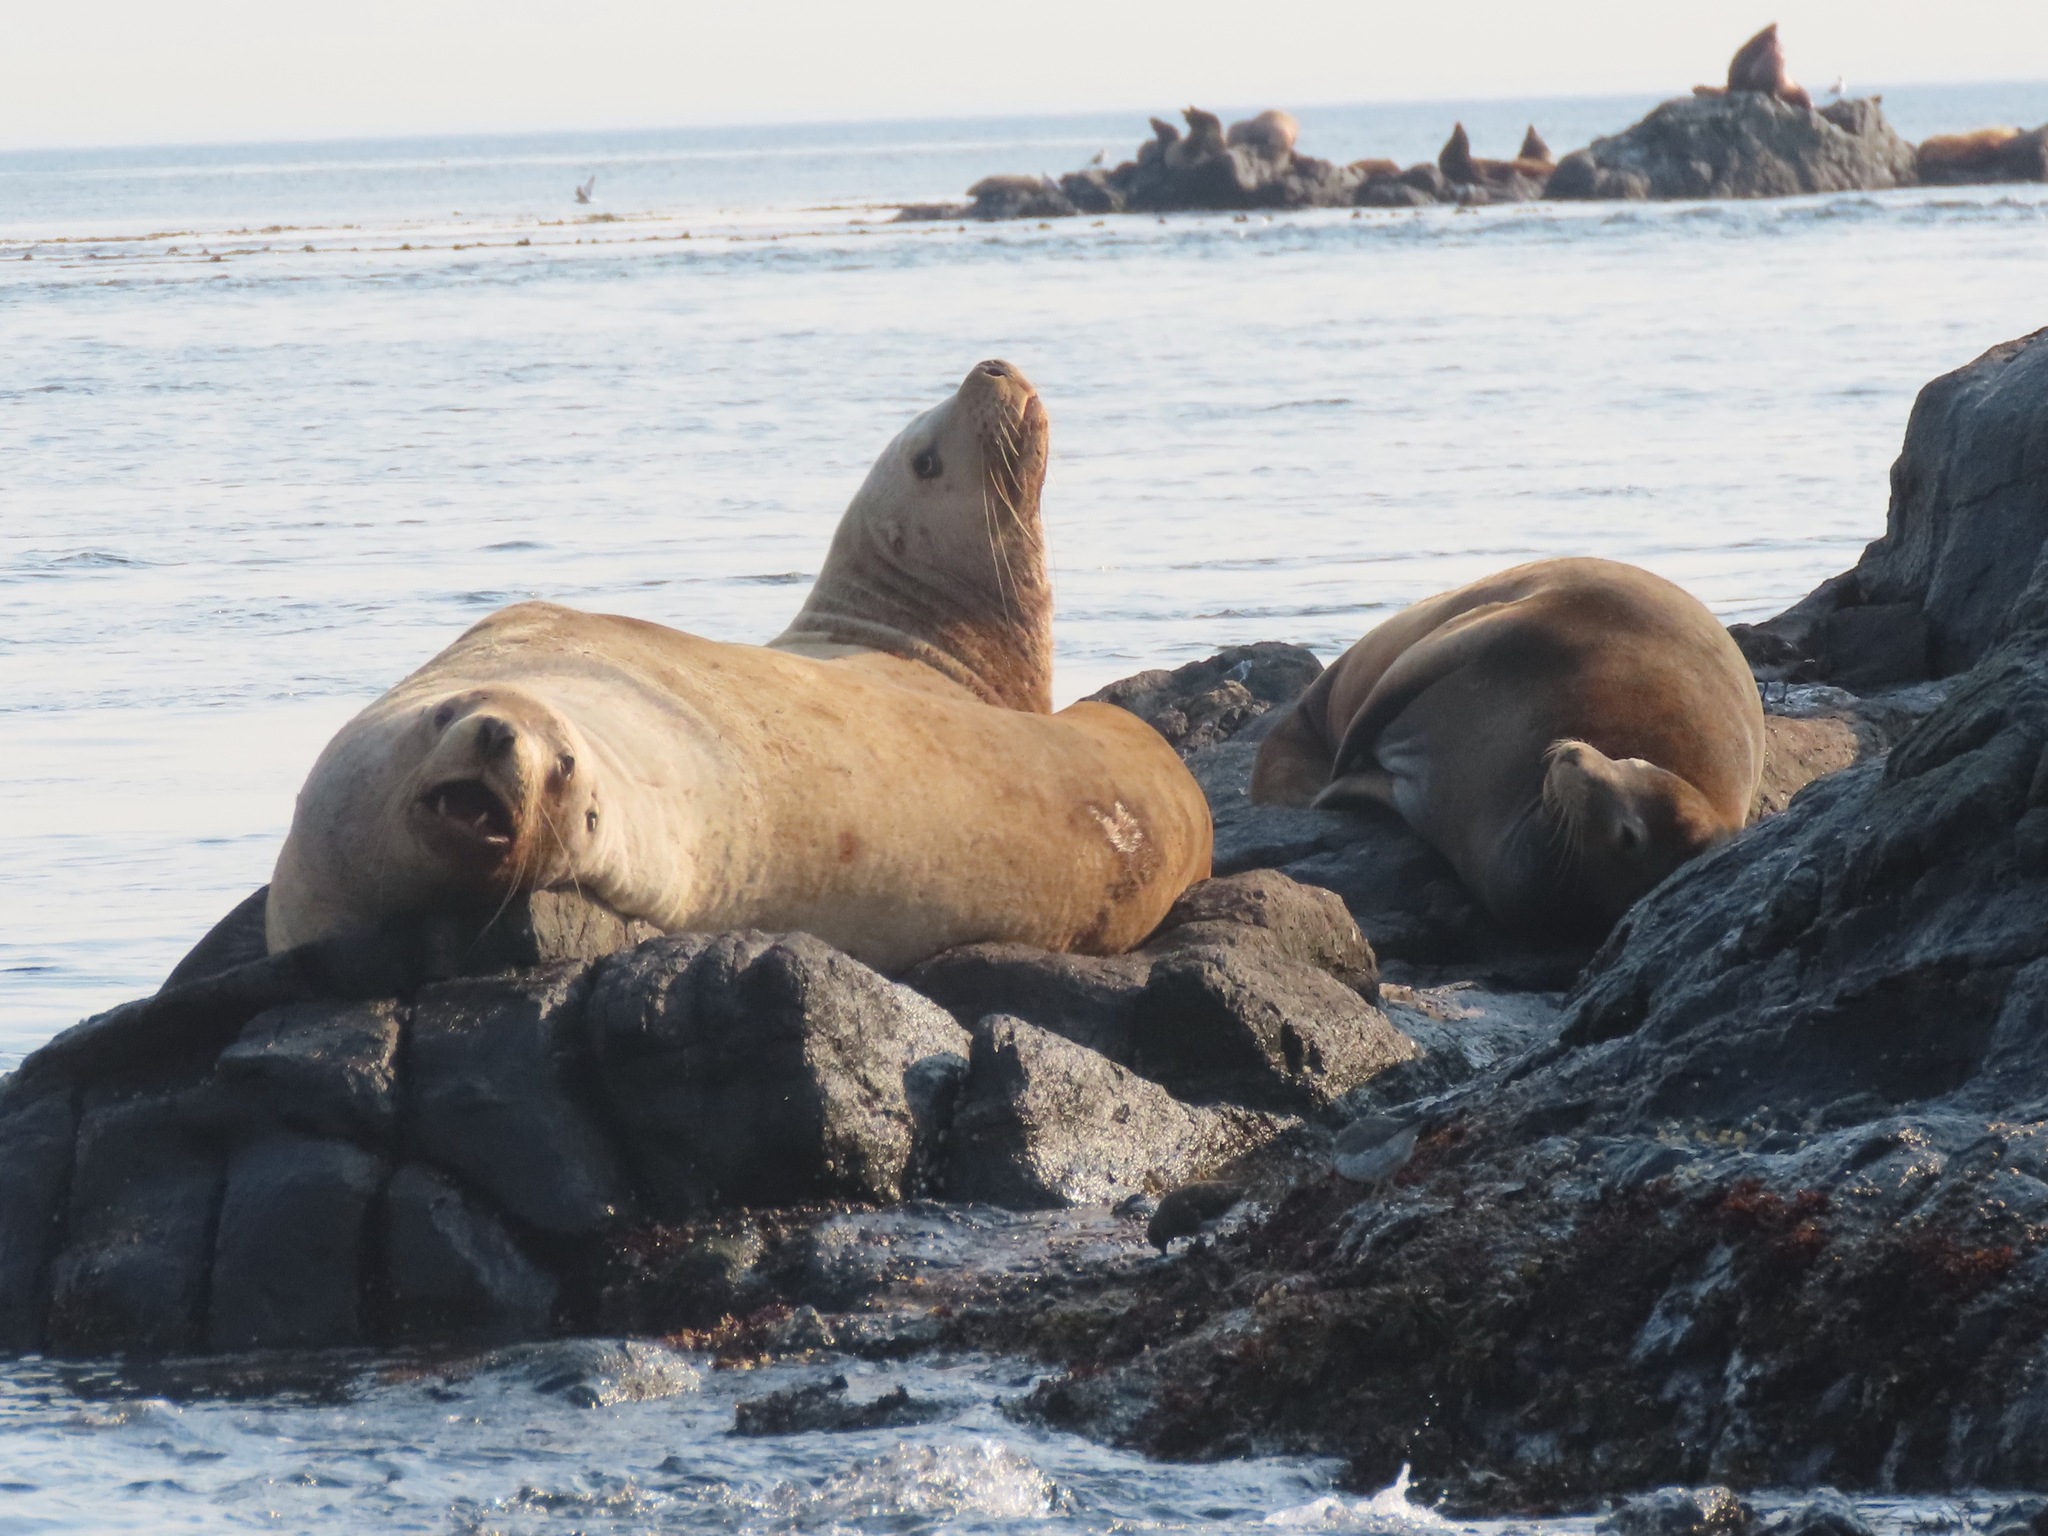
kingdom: Animalia
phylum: Chordata
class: Mammalia
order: Carnivora
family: Otariidae
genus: Eumetopias
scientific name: Eumetopias jubatus
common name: Steller sea lion
